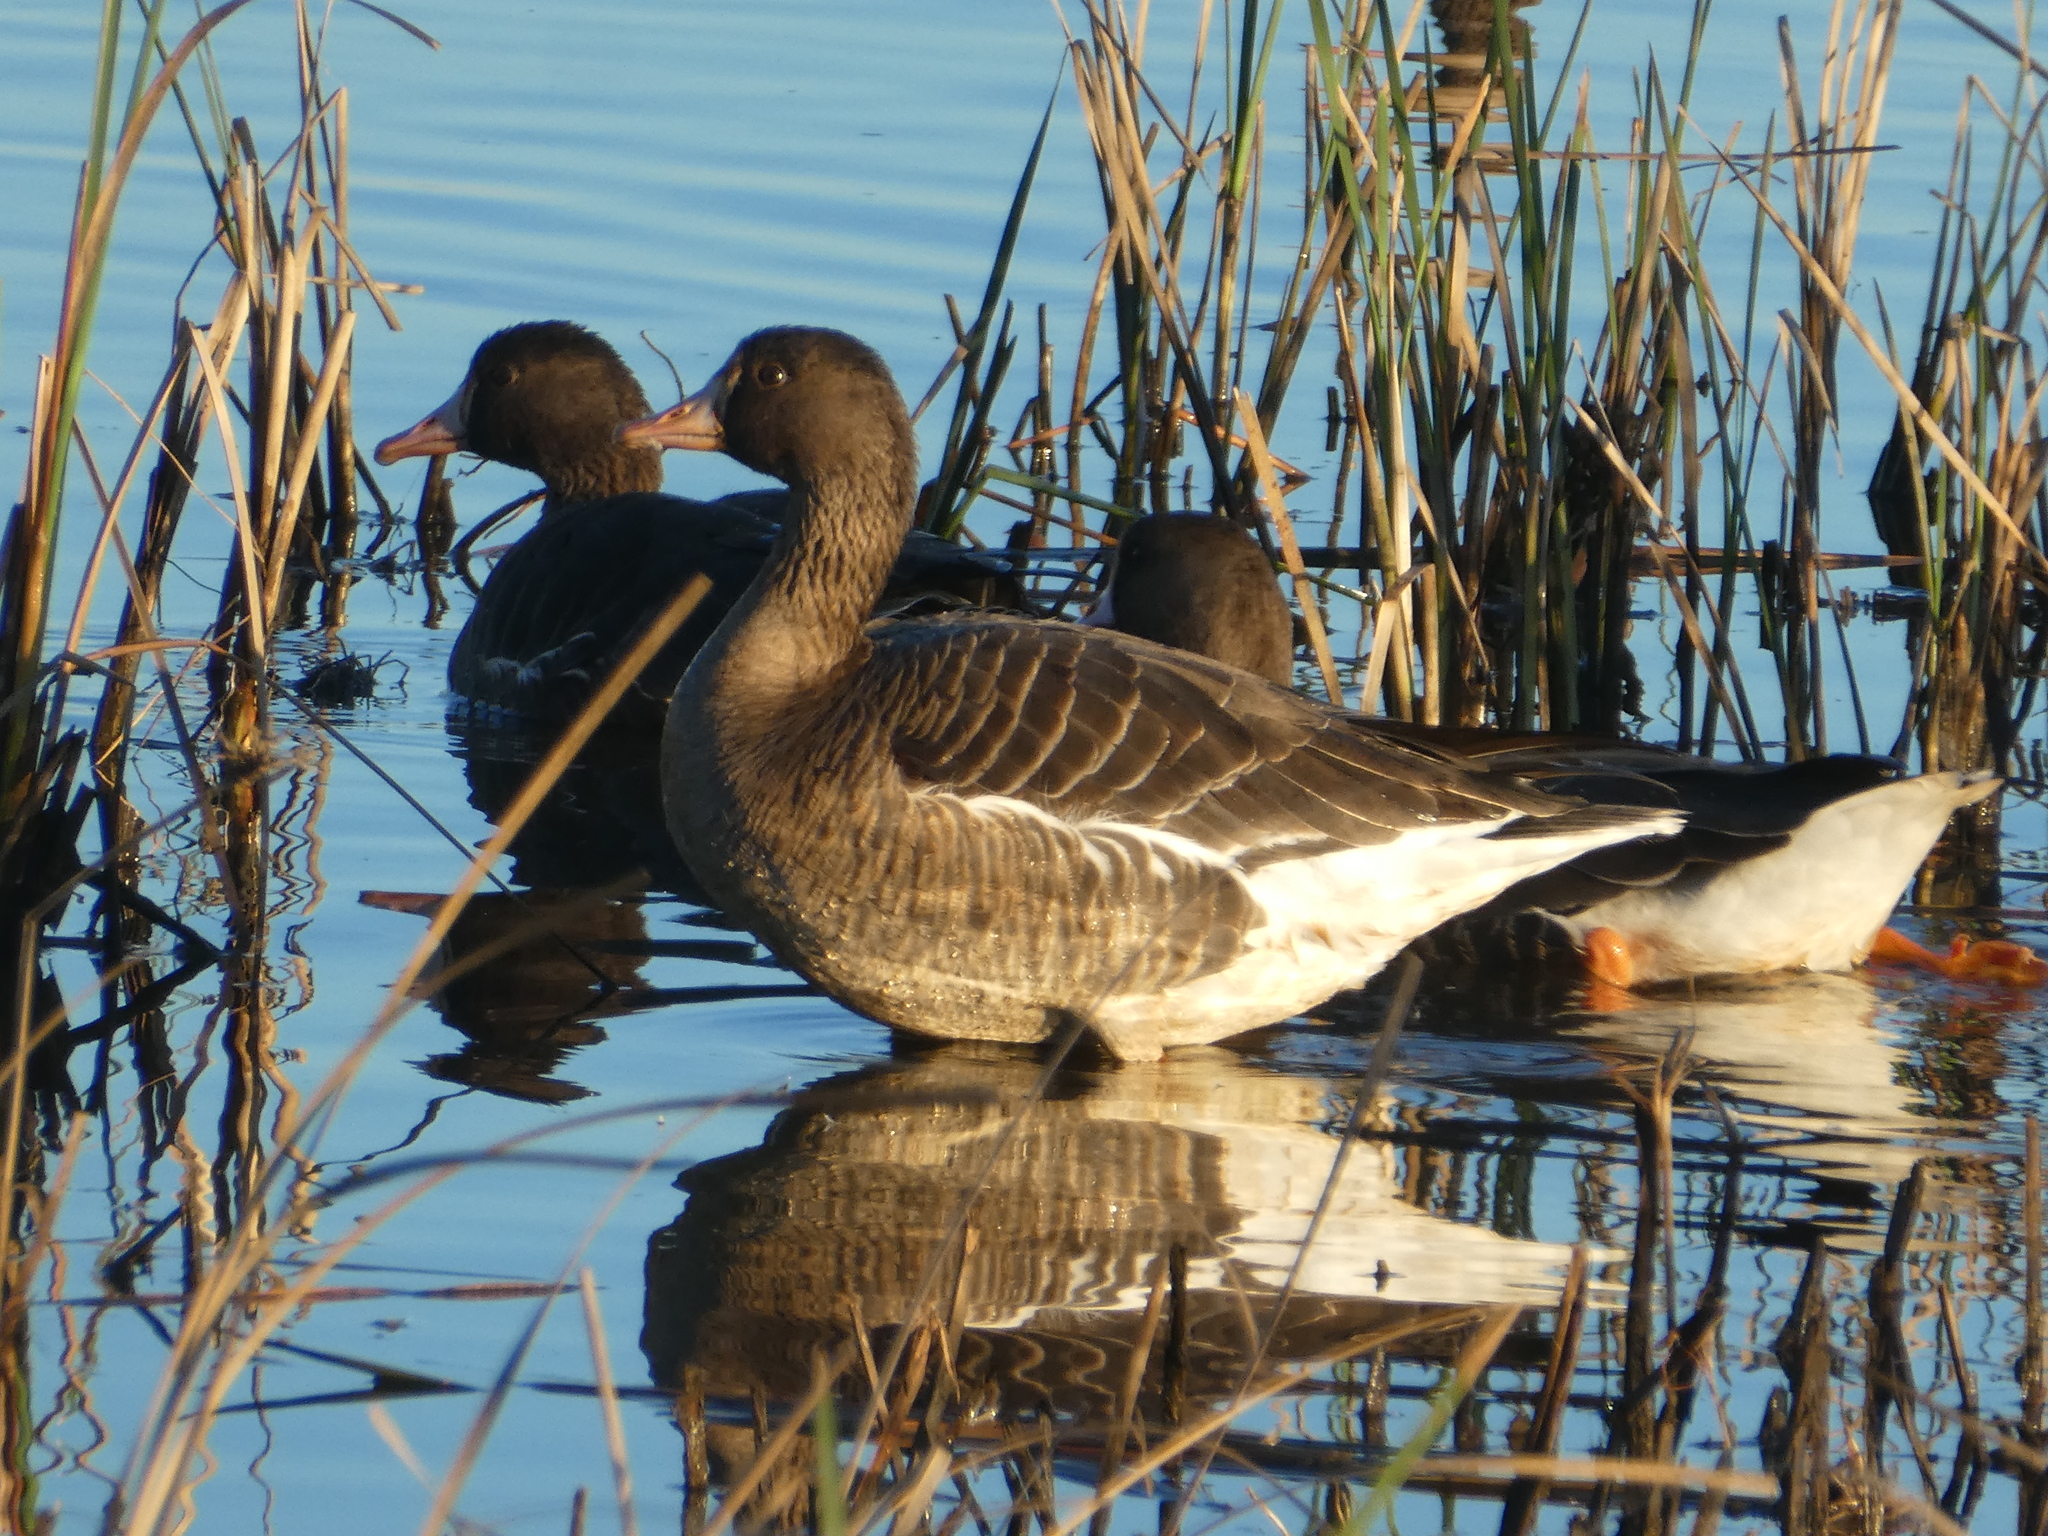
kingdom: Animalia
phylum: Chordata
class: Aves
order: Anseriformes
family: Anatidae
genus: Anser
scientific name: Anser albifrons
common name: Greater white-fronted goose
